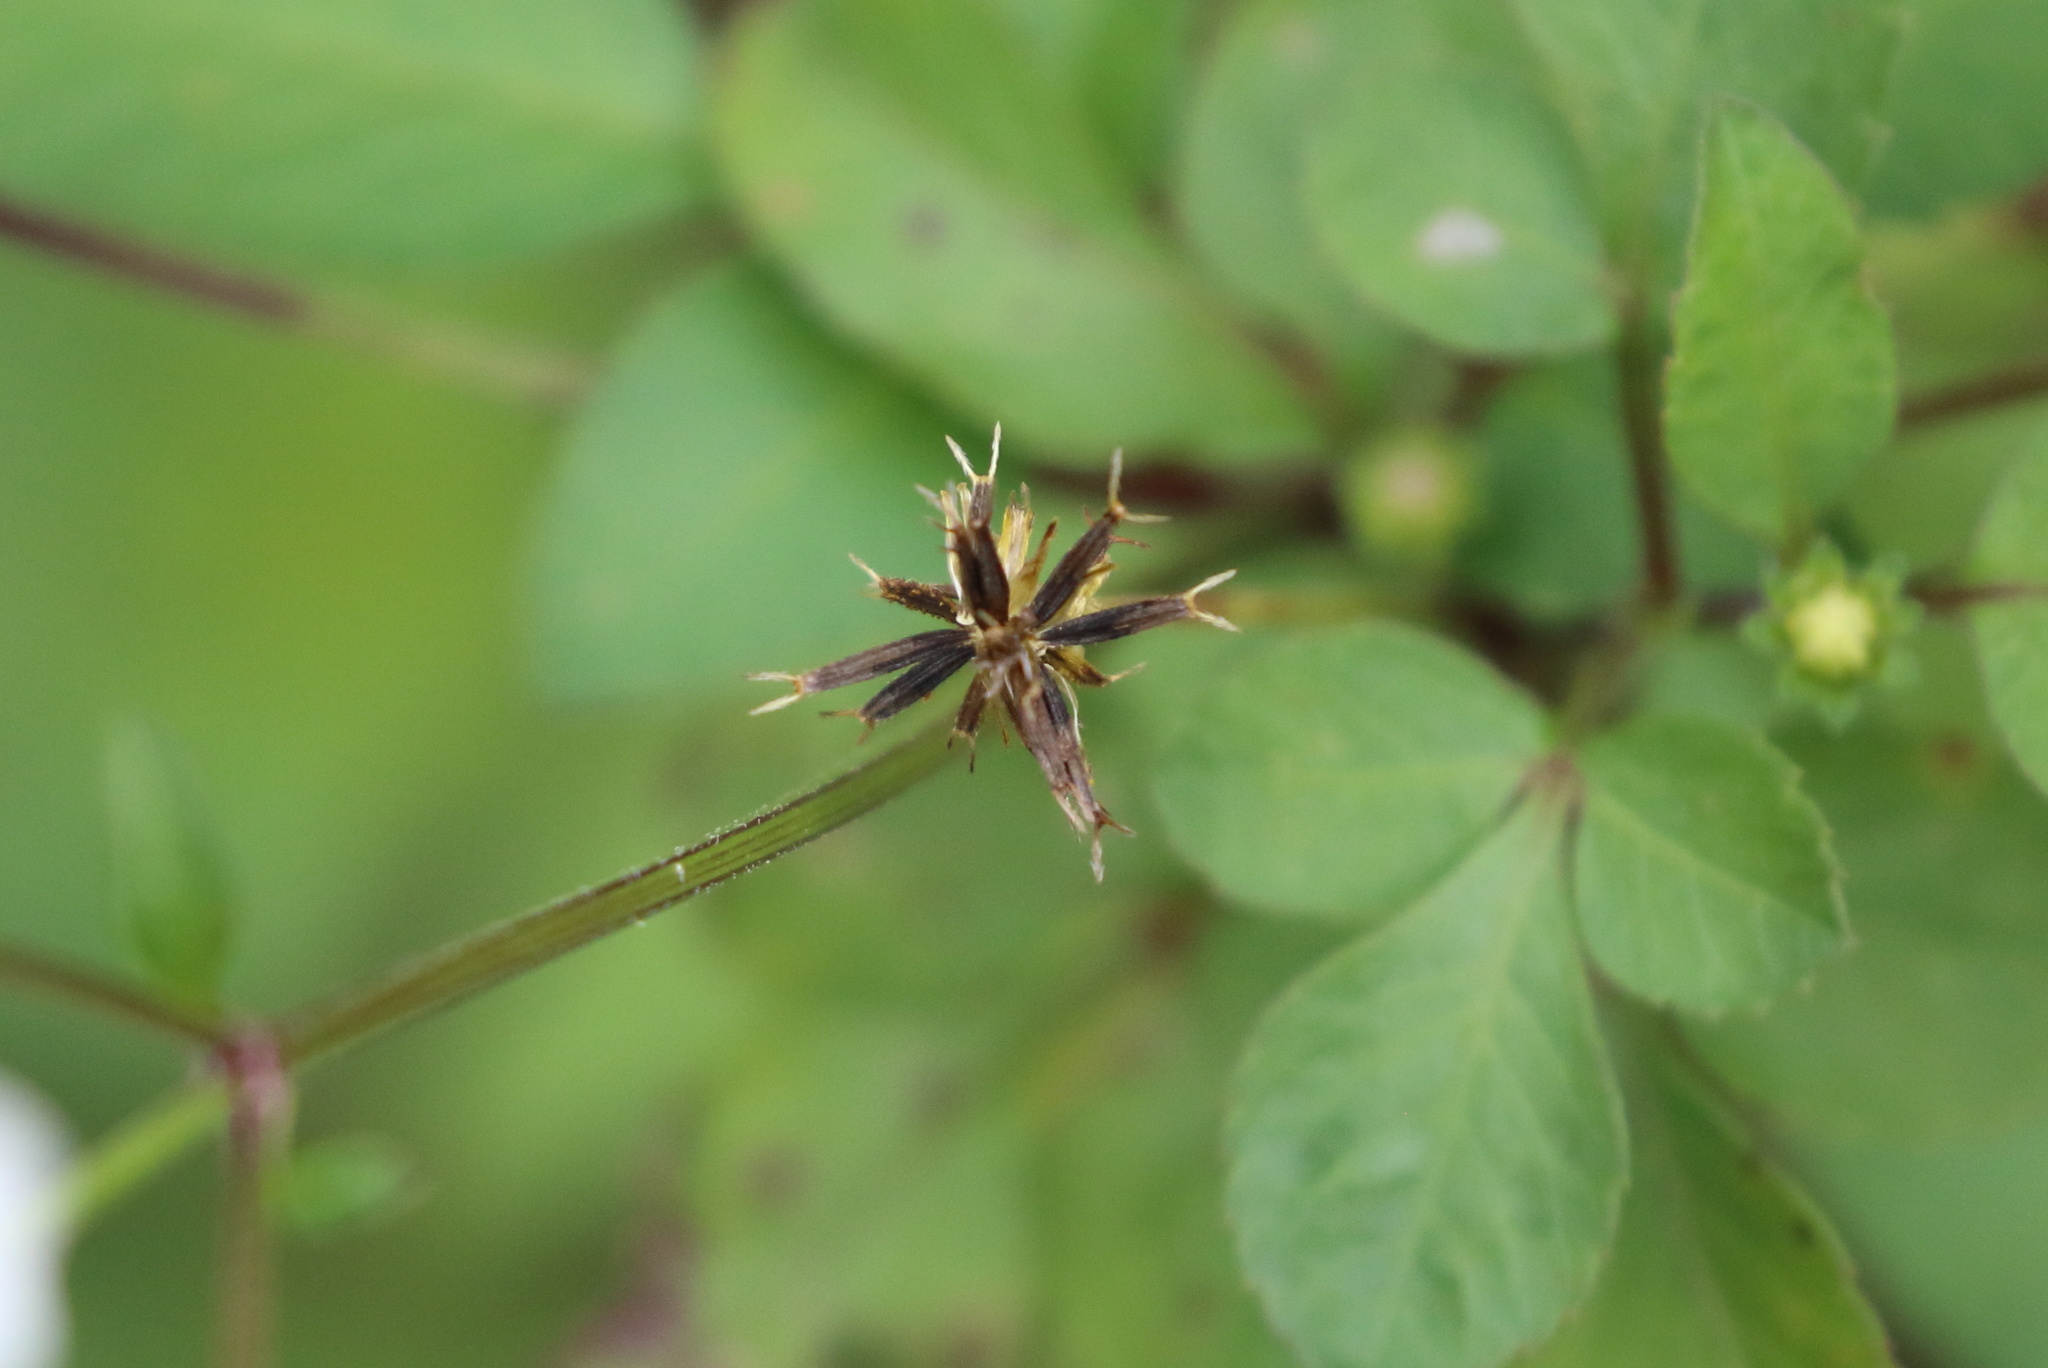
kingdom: Plantae
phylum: Tracheophyta
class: Magnoliopsida
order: Asterales
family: Asteraceae
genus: Bidens
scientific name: Bidens alba
